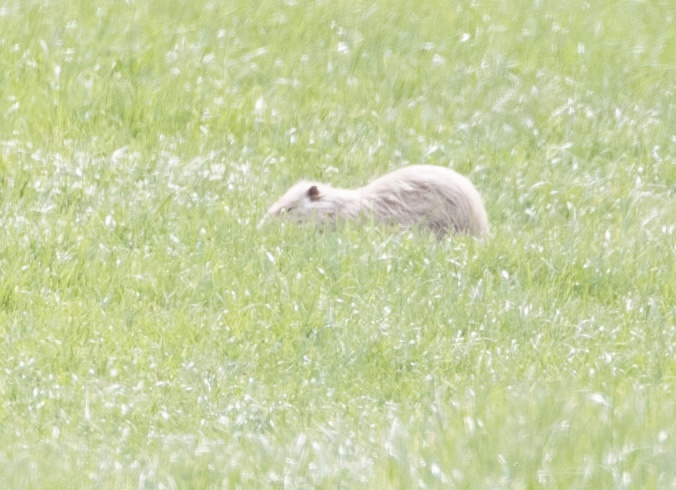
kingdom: Animalia
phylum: Chordata
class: Mammalia
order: Rodentia
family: Myocastoridae
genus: Myocastor
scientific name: Myocastor coypus
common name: Coypu
